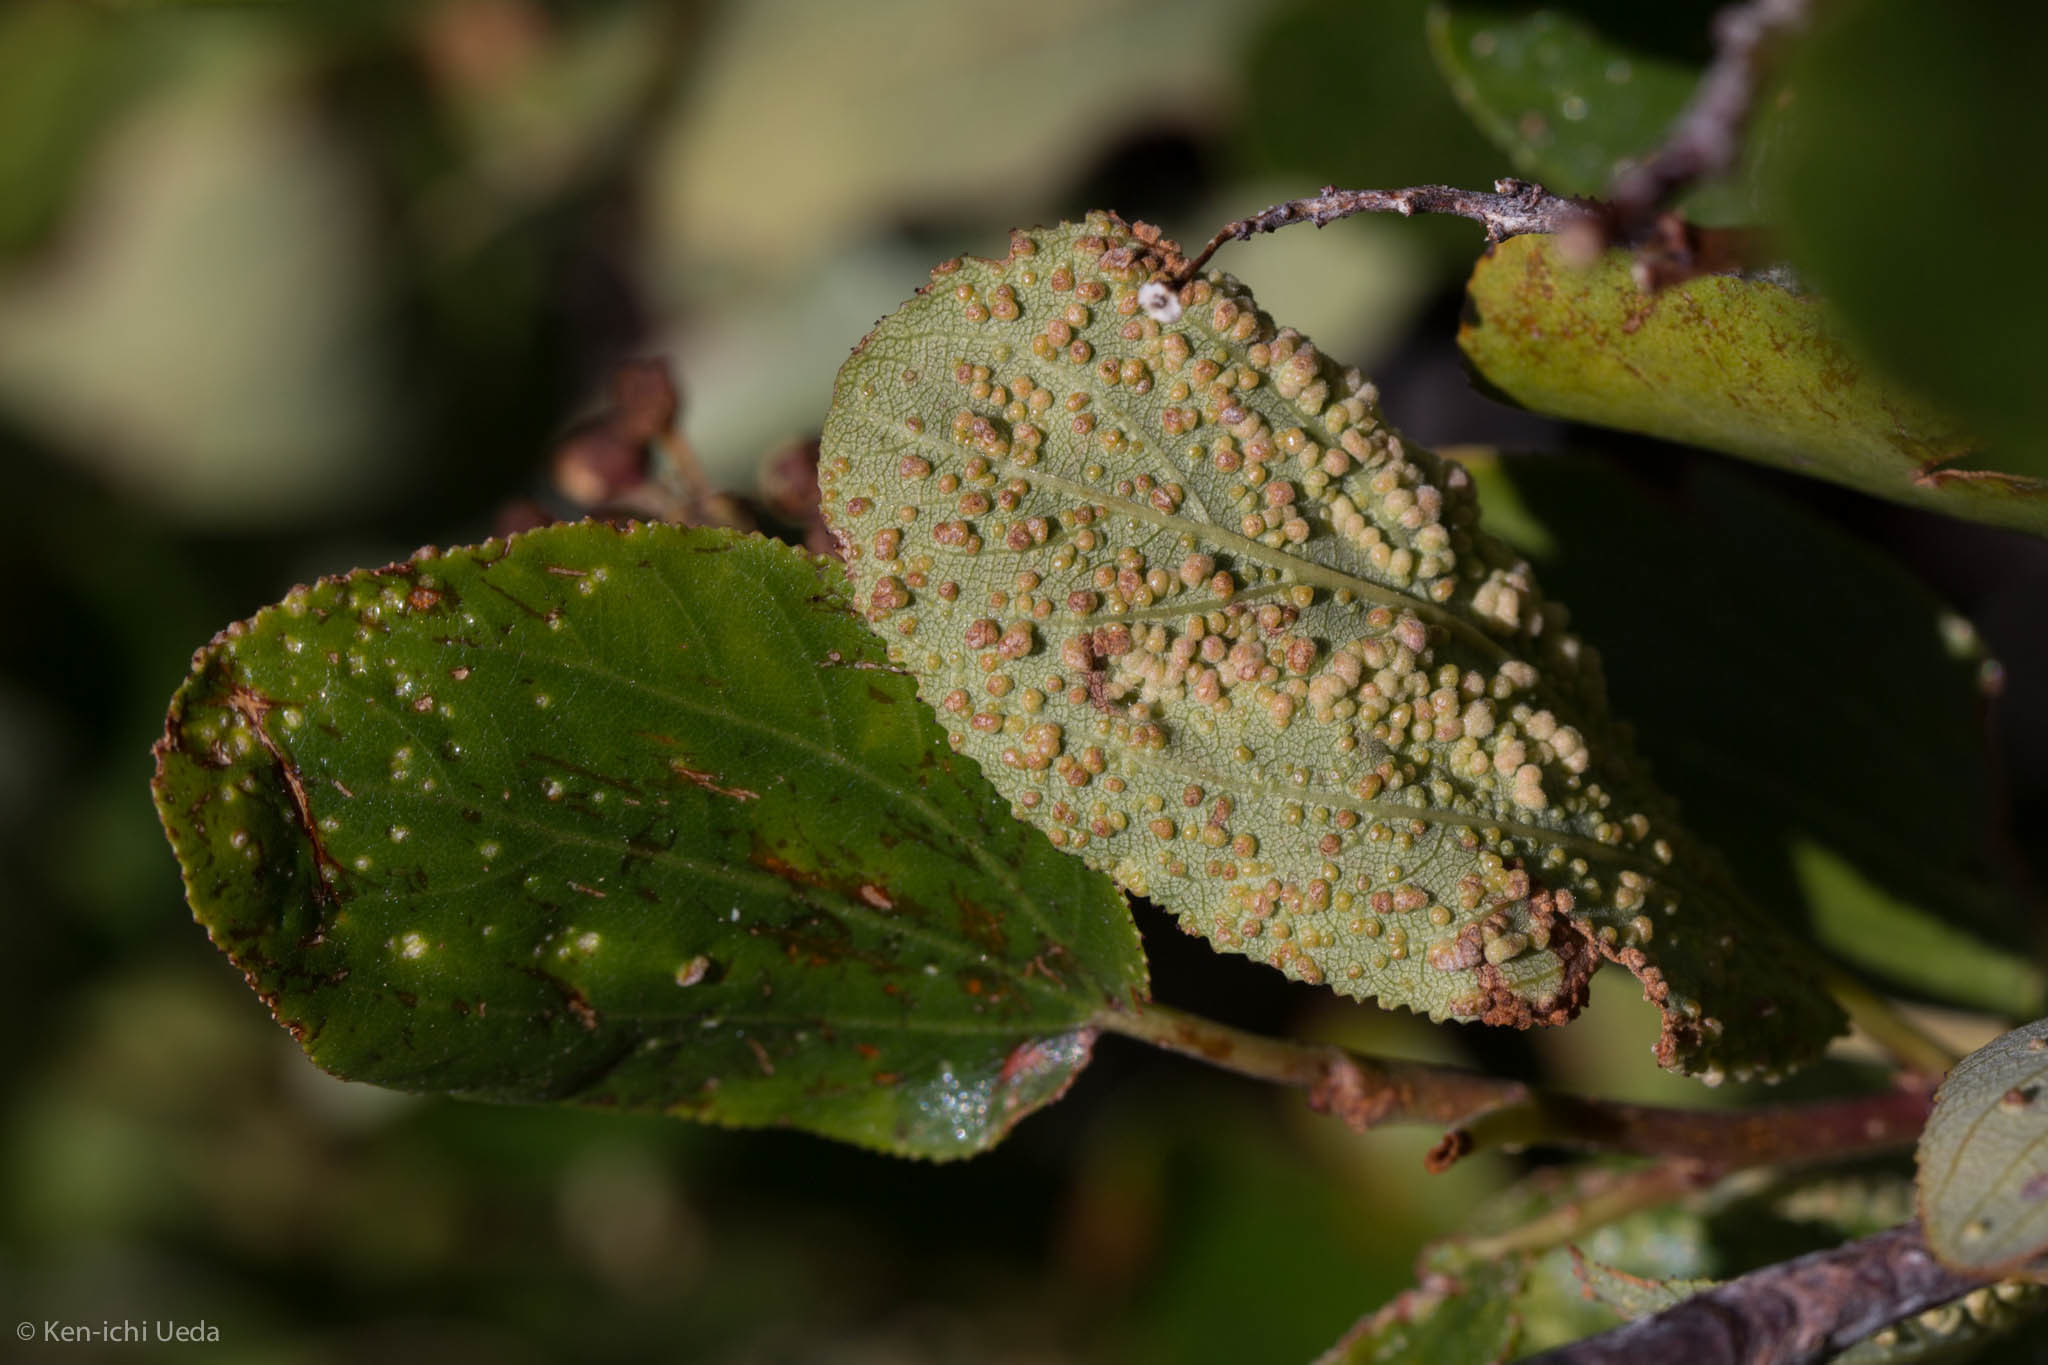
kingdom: Animalia
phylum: Arthropoda
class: Arachnida
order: Trombidiformes
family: Eriophyidae
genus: Aceria
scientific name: Aceria
